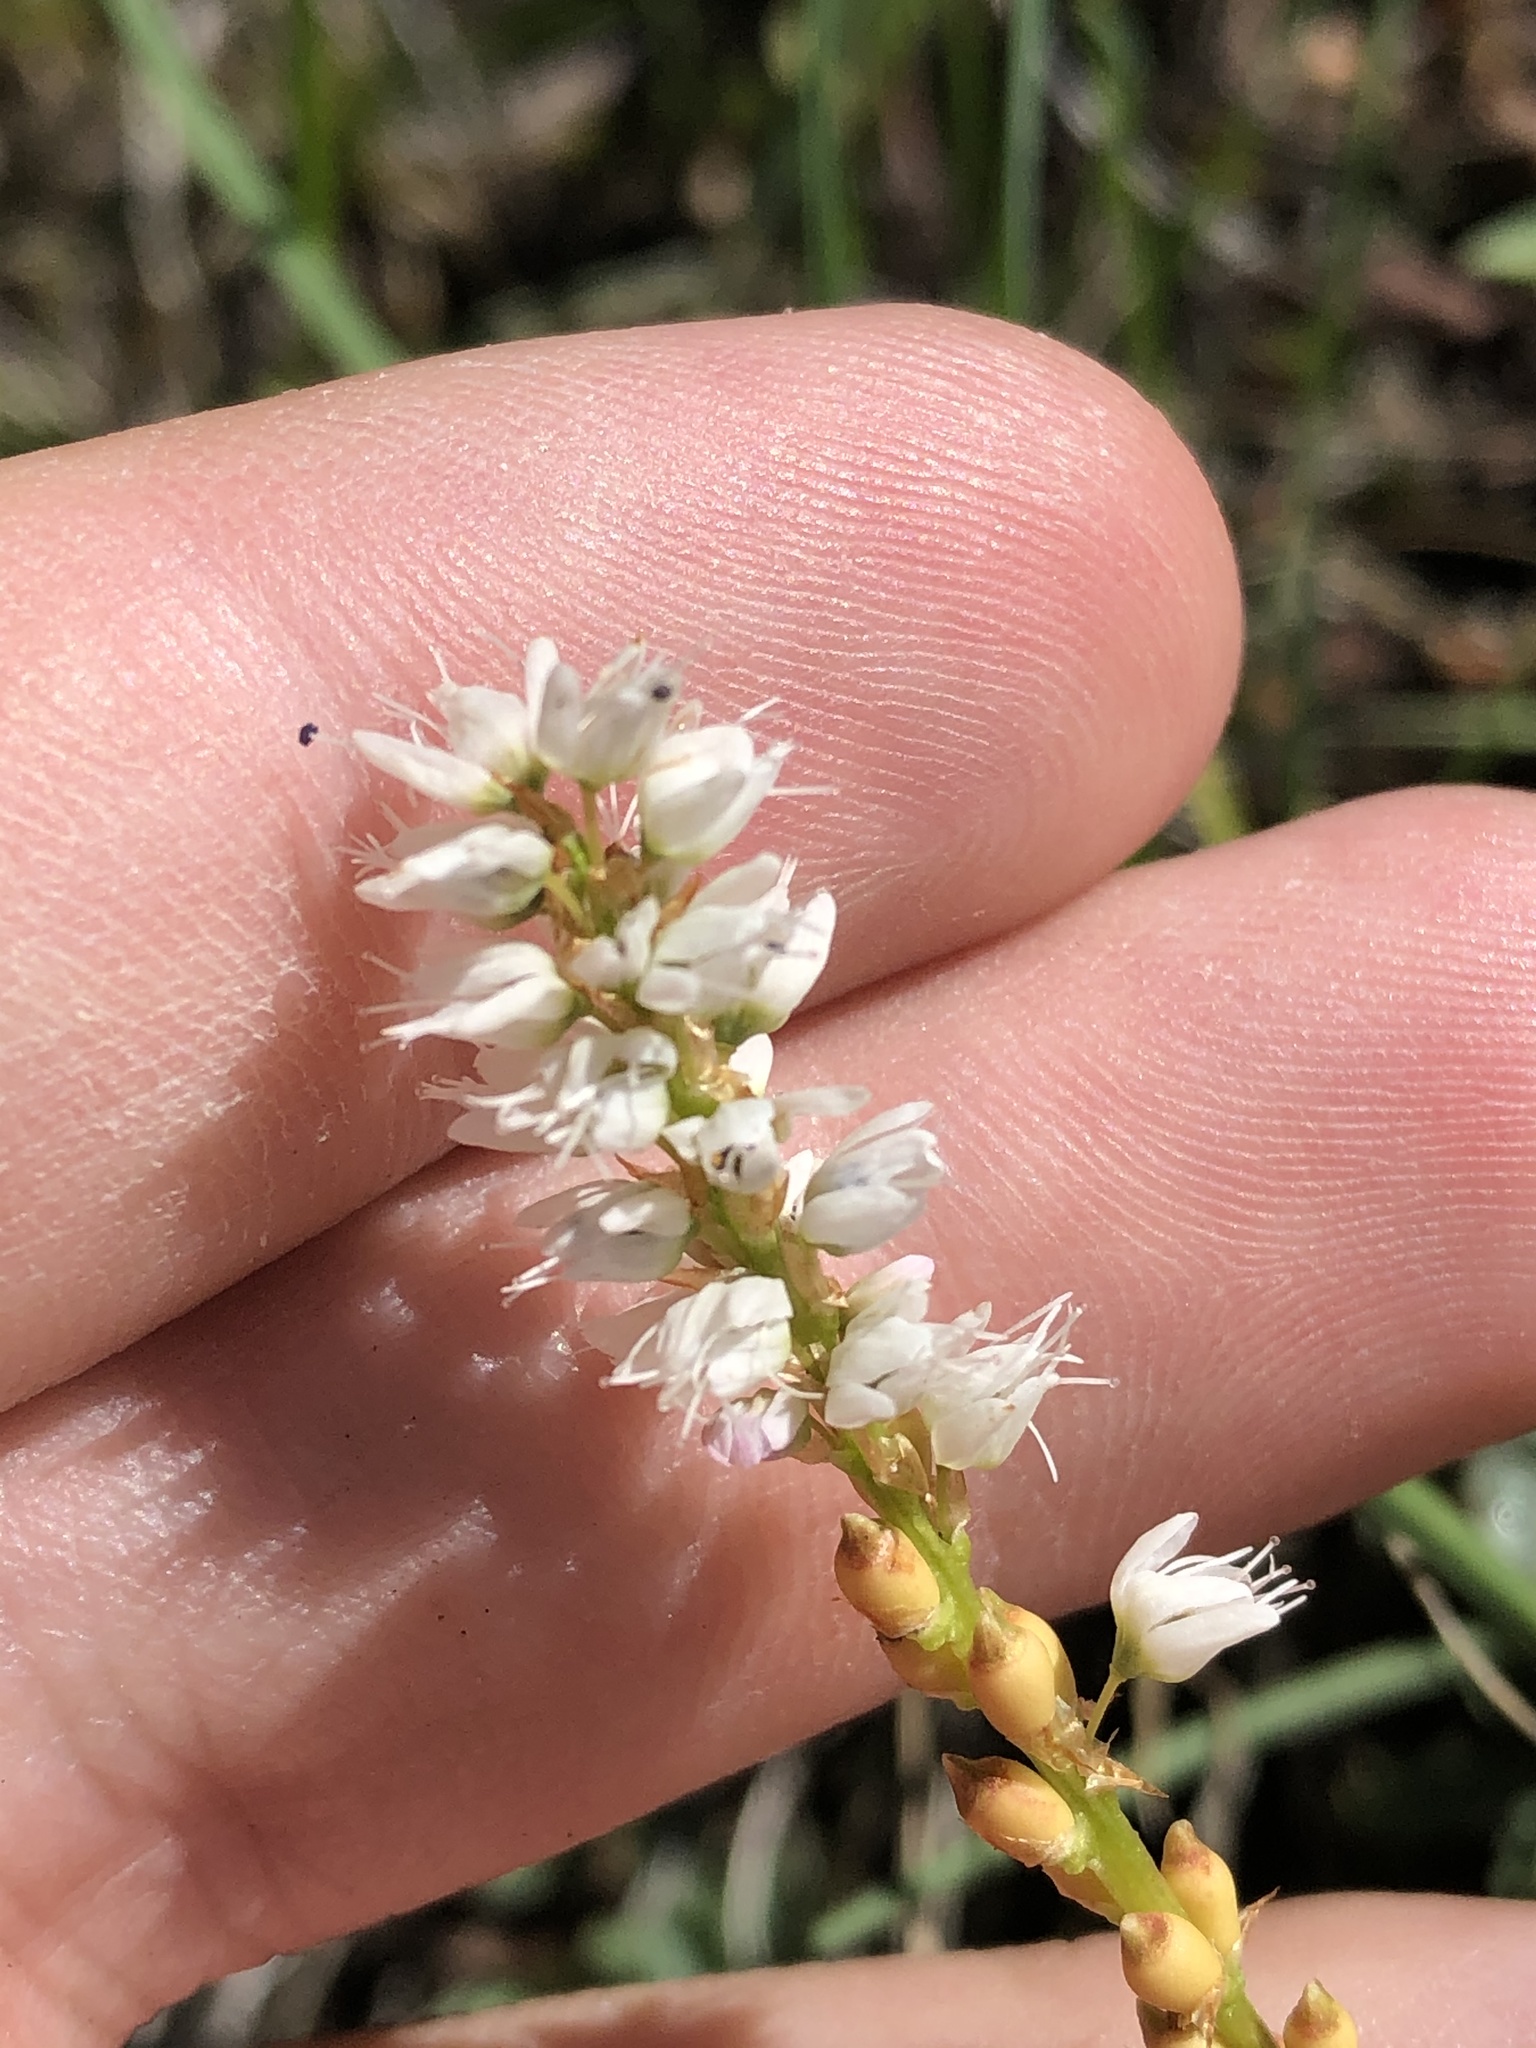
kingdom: Plantae
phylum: Tracheophyta
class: Magnoliopsida
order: Caryophyllales
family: Polygonaceae
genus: Bistorta
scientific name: Bistorta vivipara
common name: Alpine bistort
